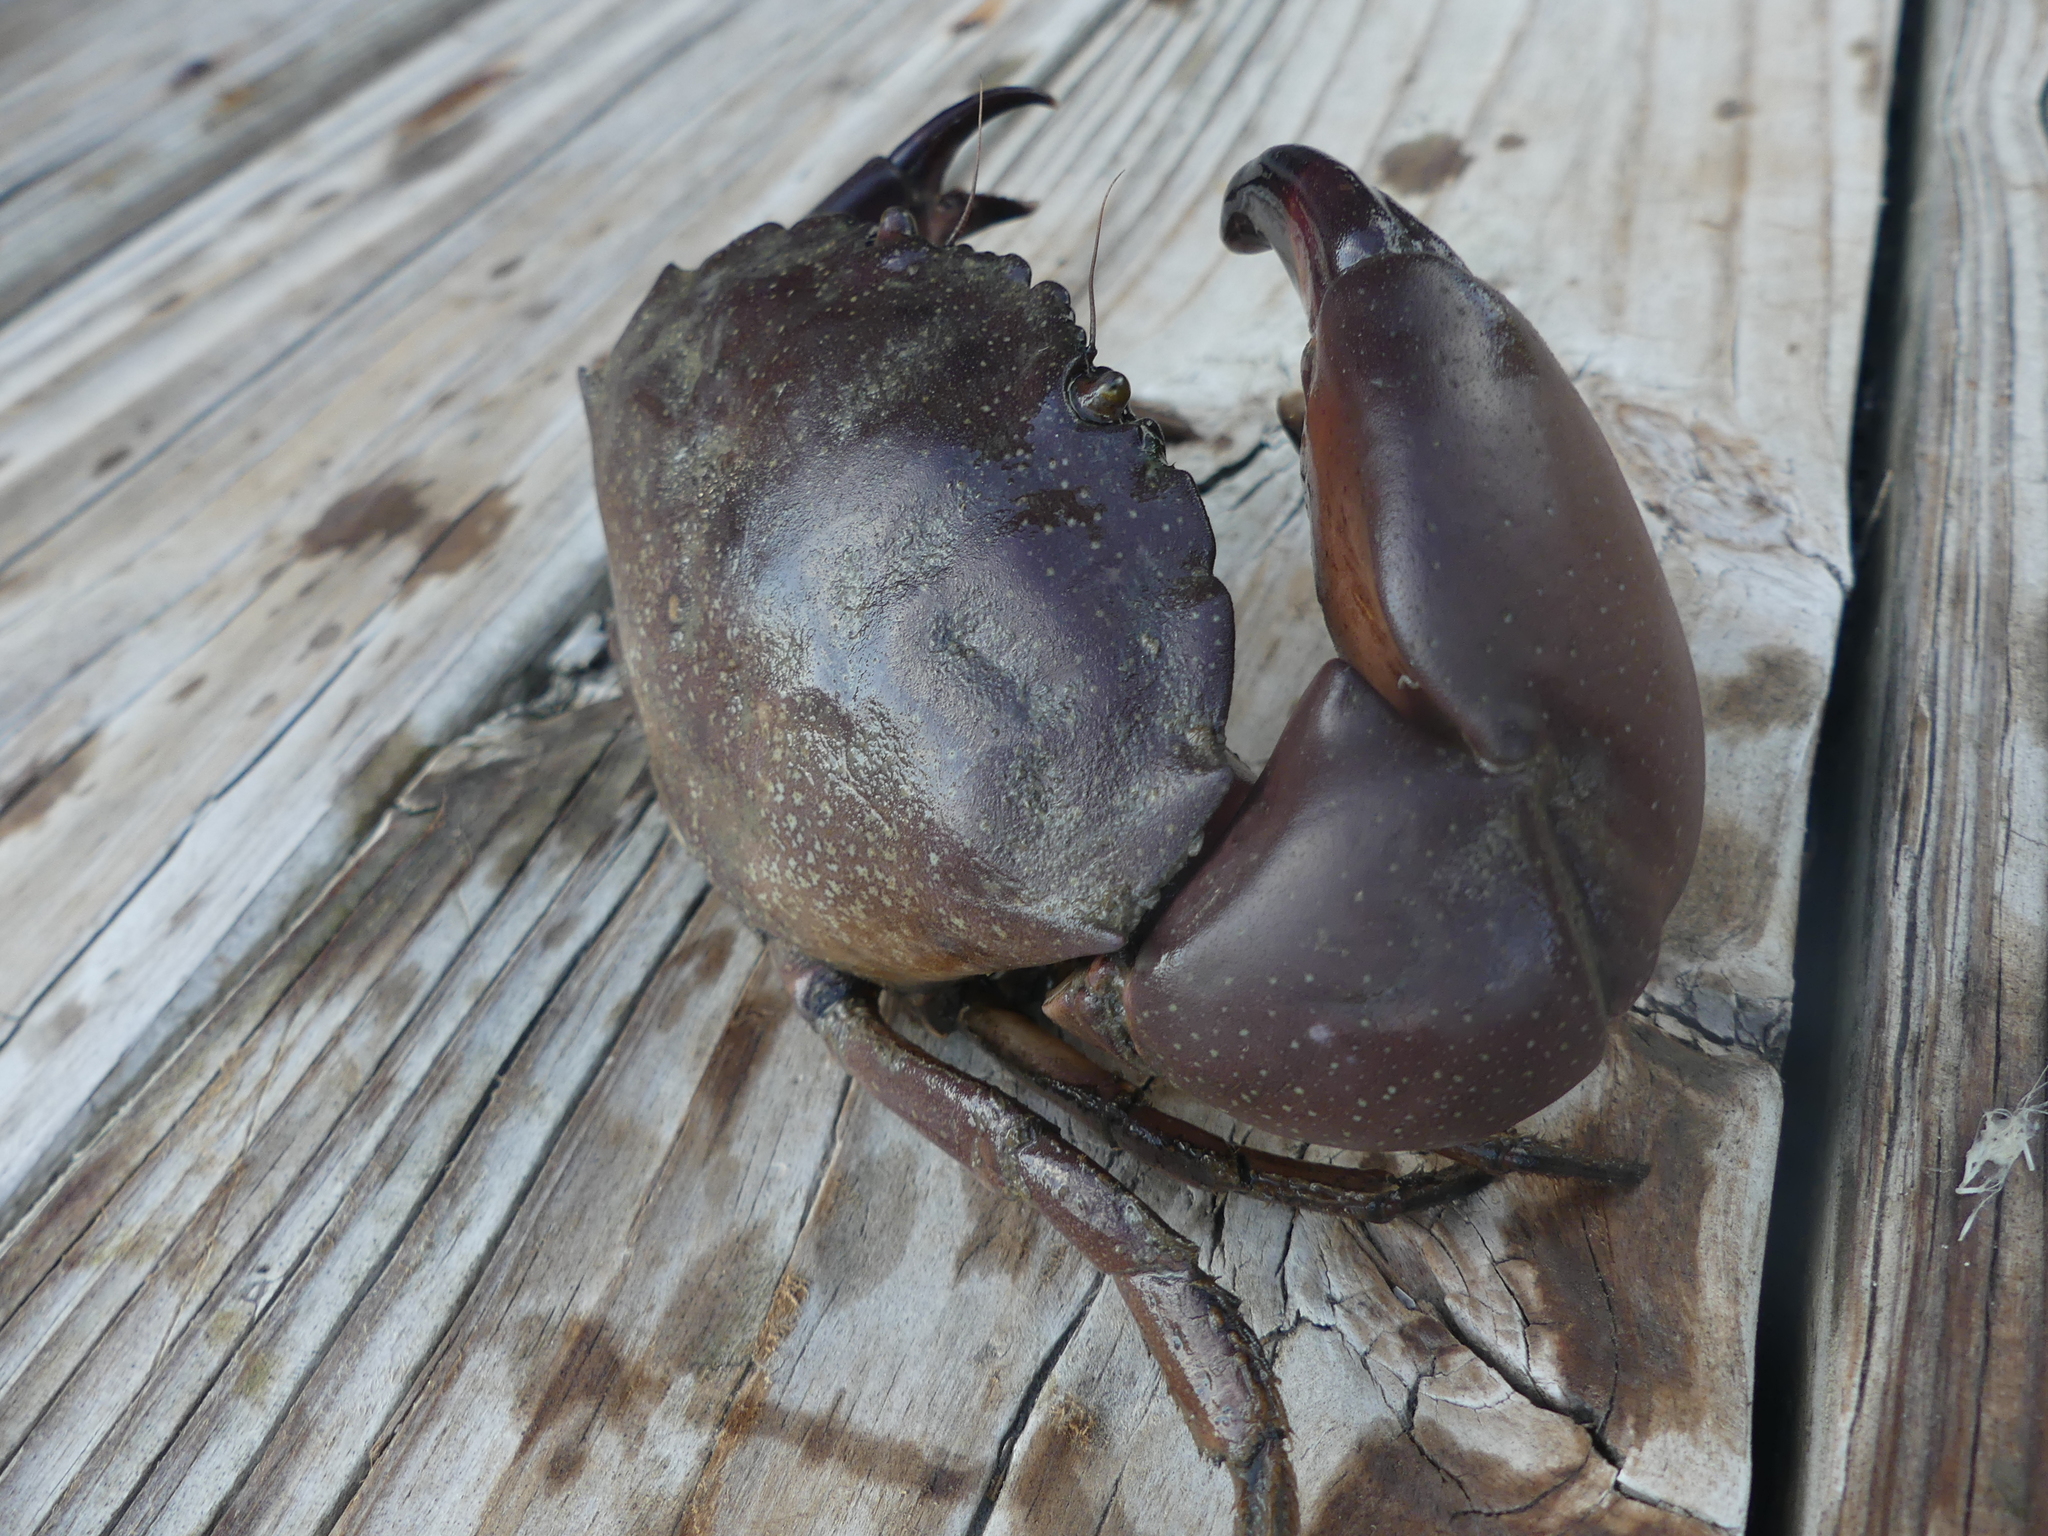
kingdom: Animalia
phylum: Arthropoda
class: Malacostraca
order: Decapoda
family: Menippidae
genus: Menippe
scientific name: Menippe adina
